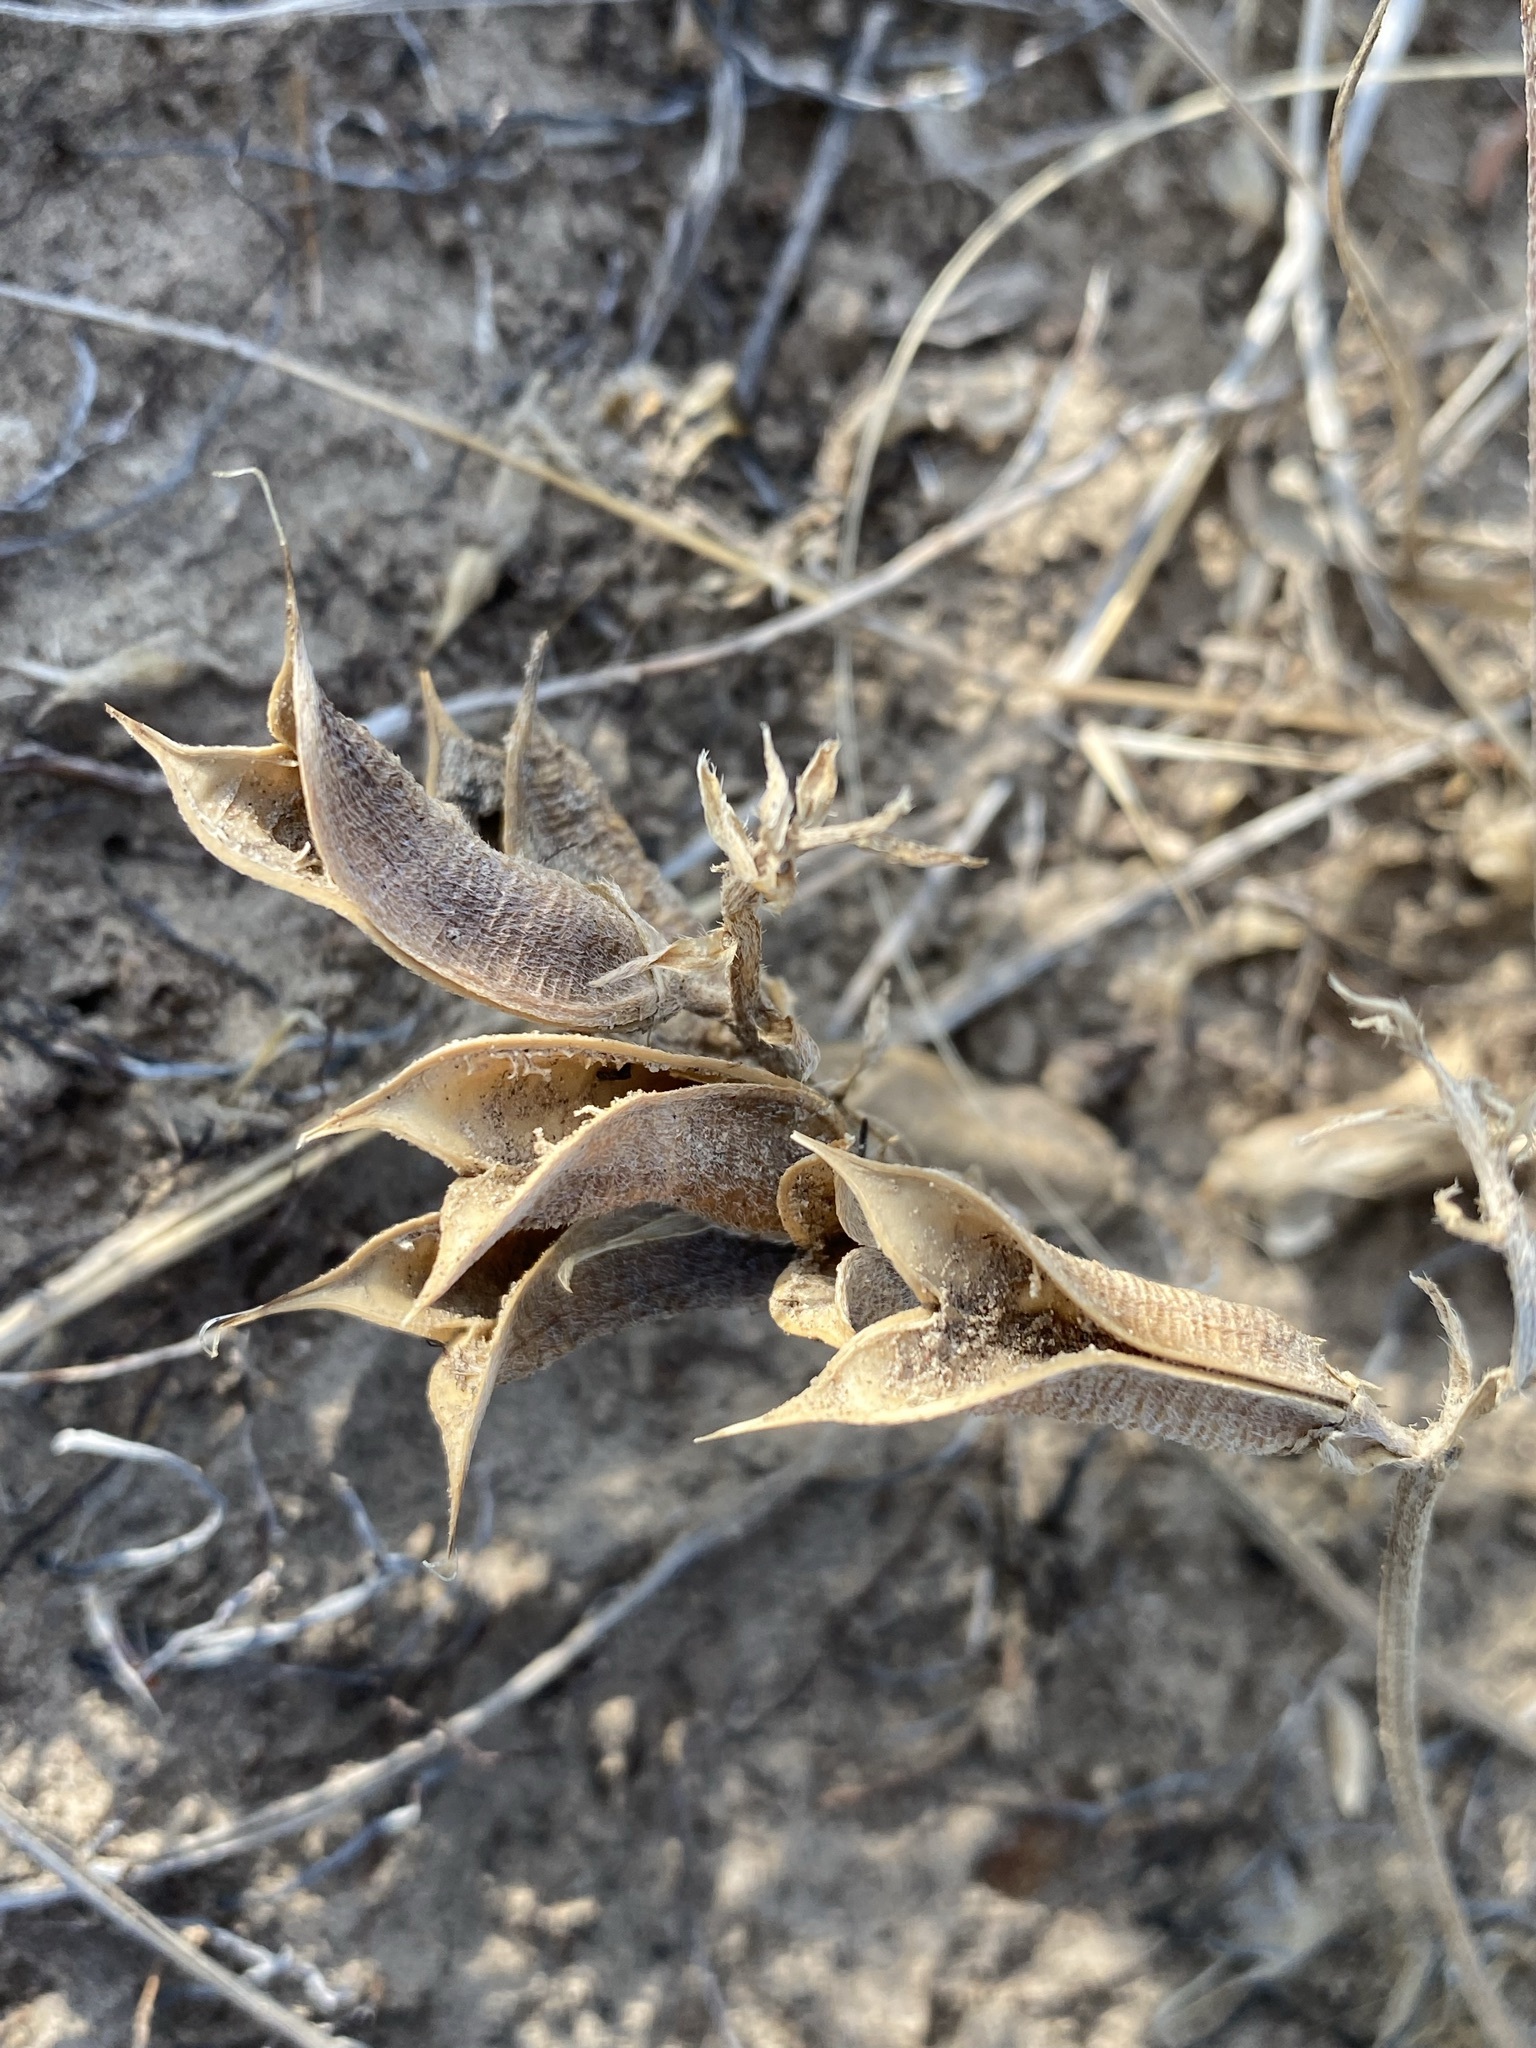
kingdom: Plantae
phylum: Tracheophyta
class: Magnoliopsida
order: Fabales
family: Fabaceae
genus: Astragalus
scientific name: Astragalus missouriensis
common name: Missouri milk-vetch
